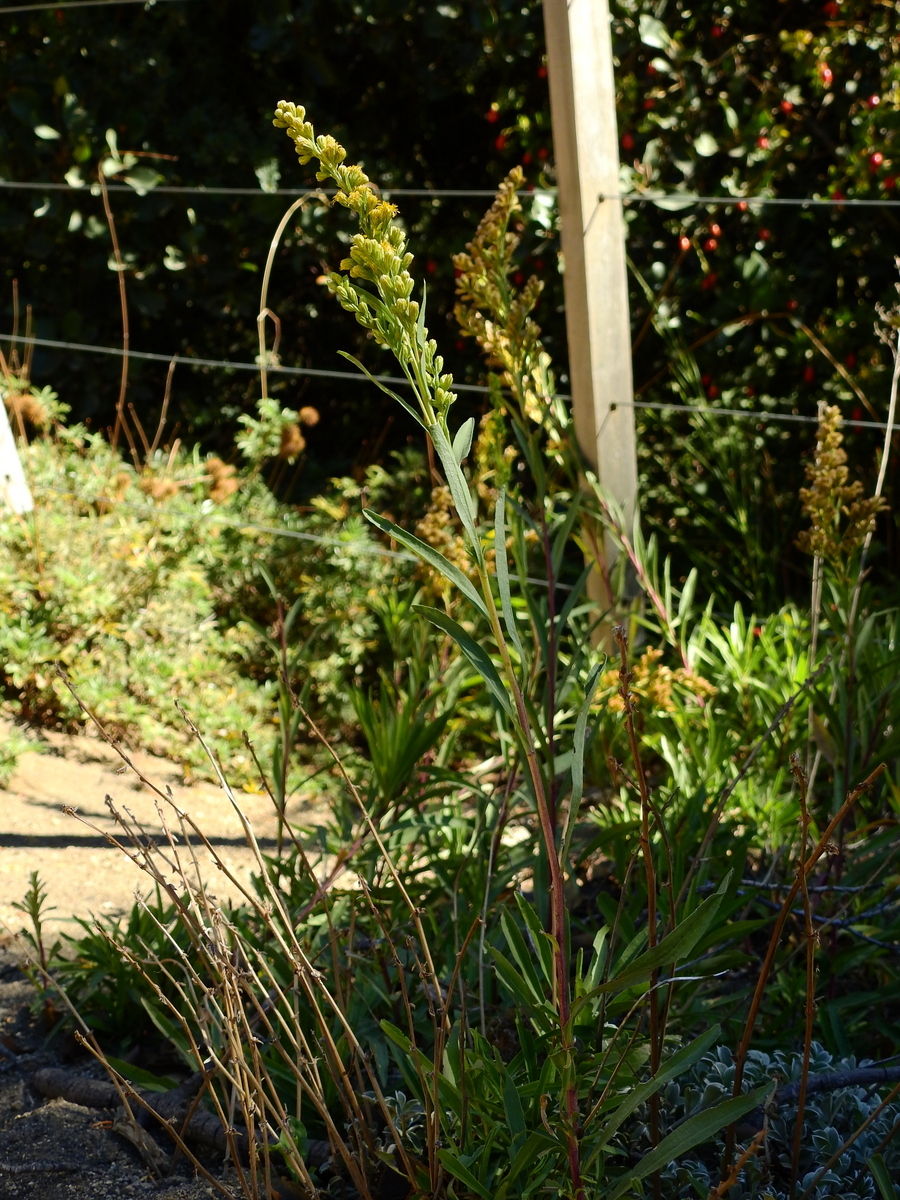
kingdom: Plantae
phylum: Tracheophyta
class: Magnoliopsida
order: Asterales
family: Asteraceae
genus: Solidago
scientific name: Solidago argentinensis
